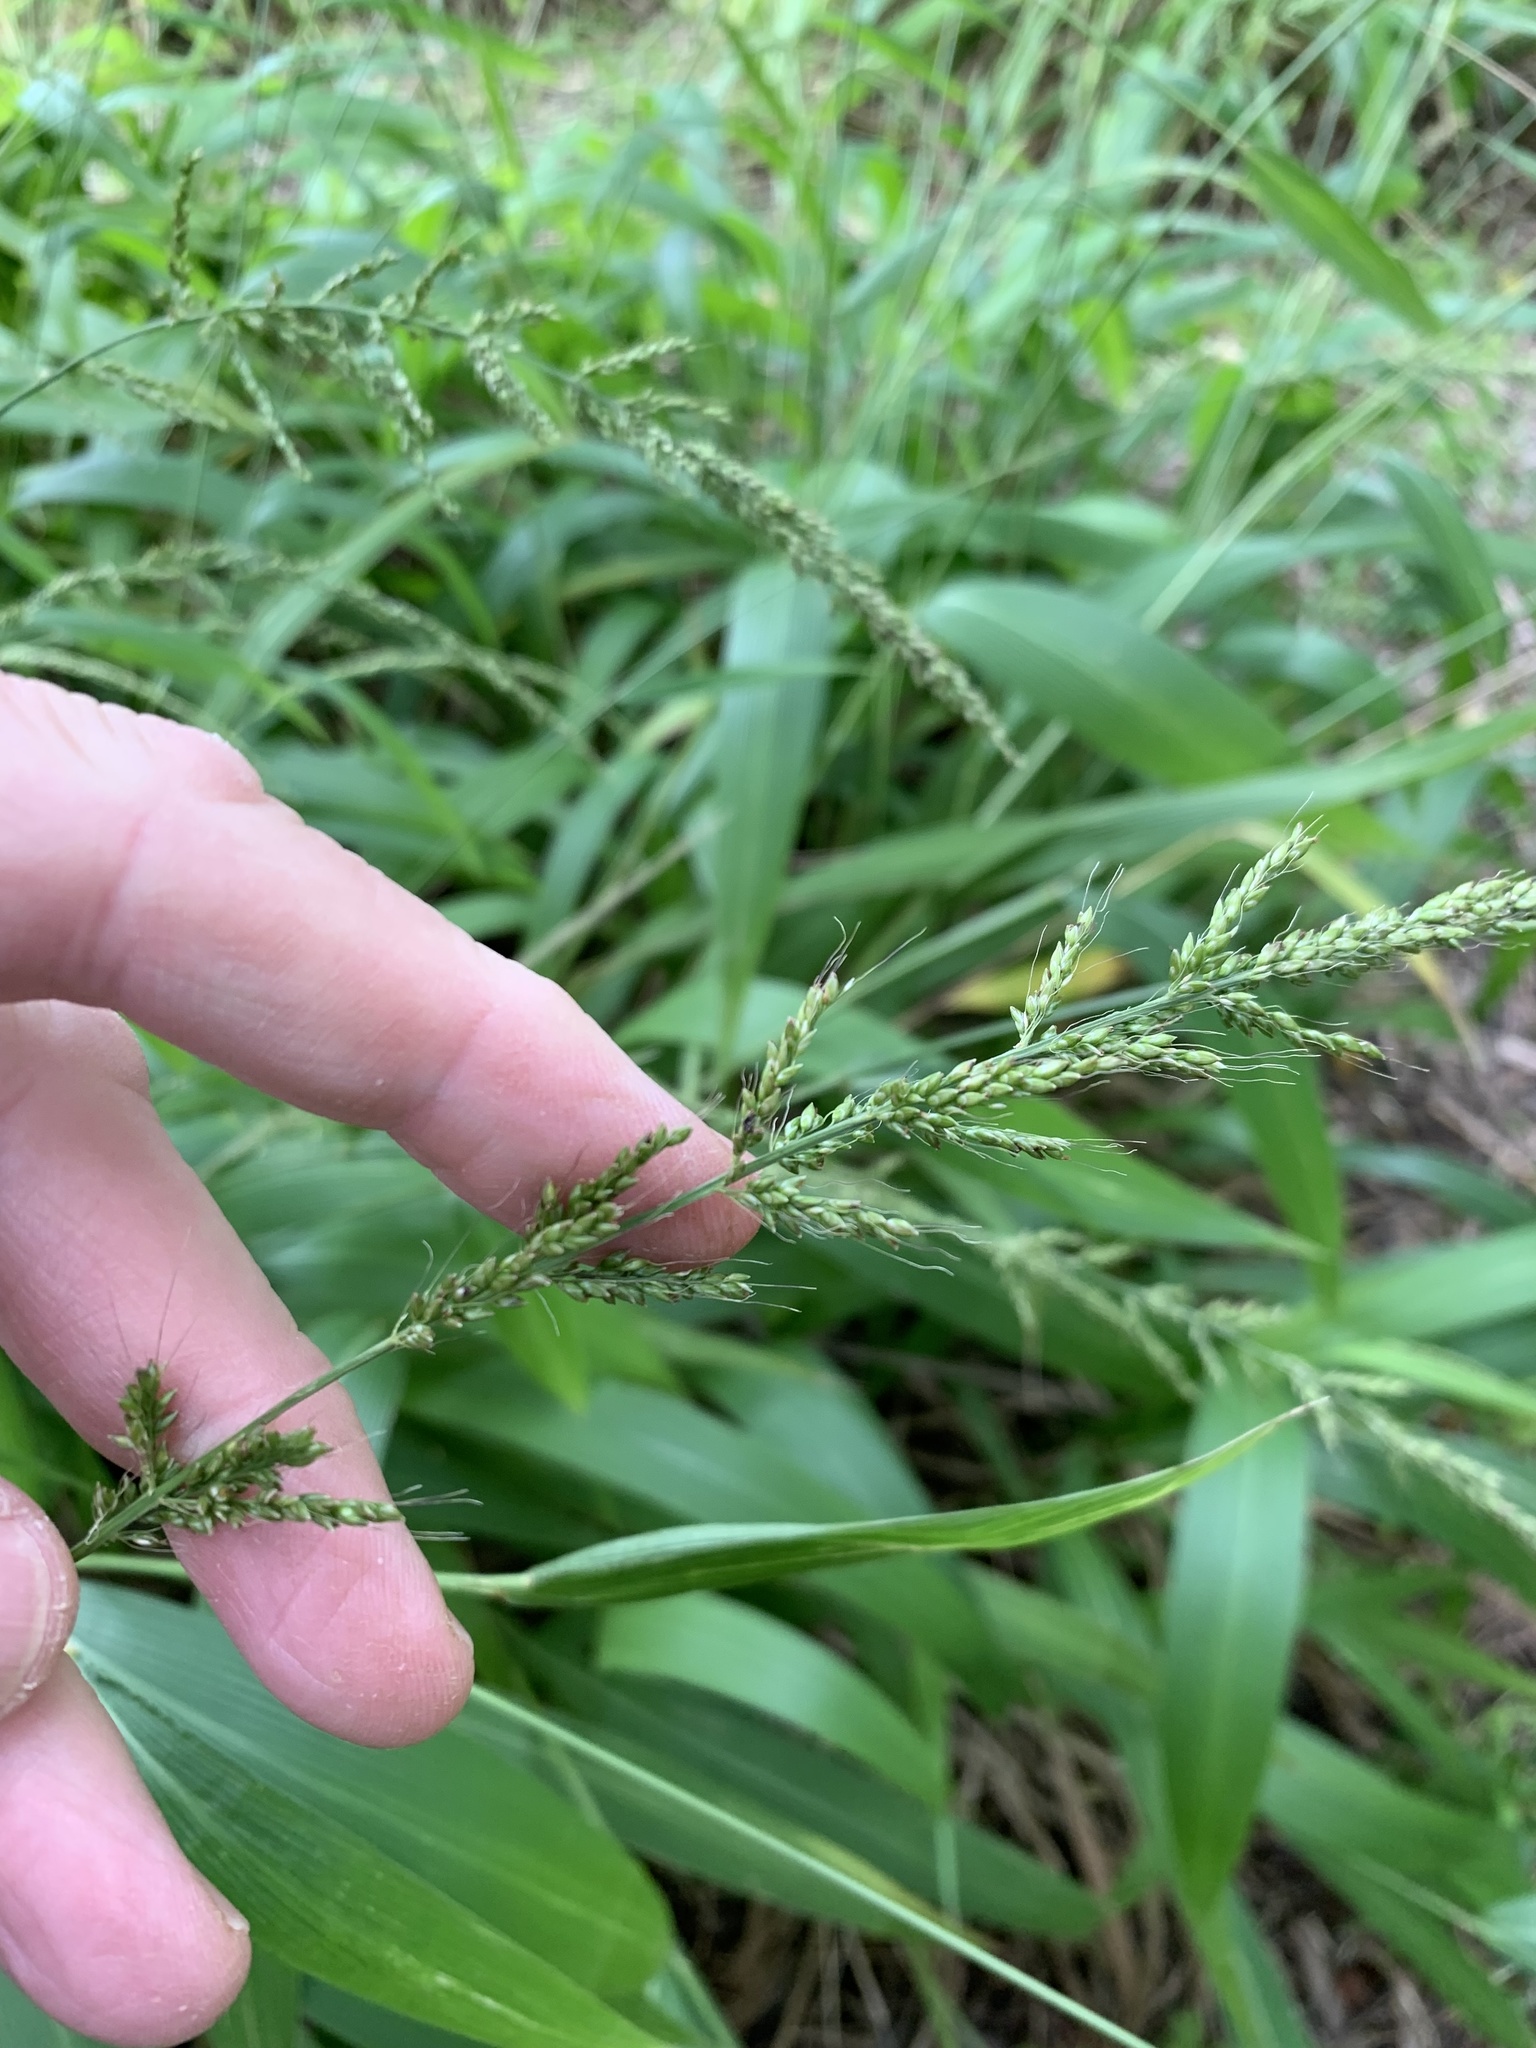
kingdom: Plantae
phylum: Tracheophyta
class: Liliopsida
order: Poales
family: Poaceae
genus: Setaria
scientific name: Setaria megaphylla
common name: Bigleaf bristlegrass
